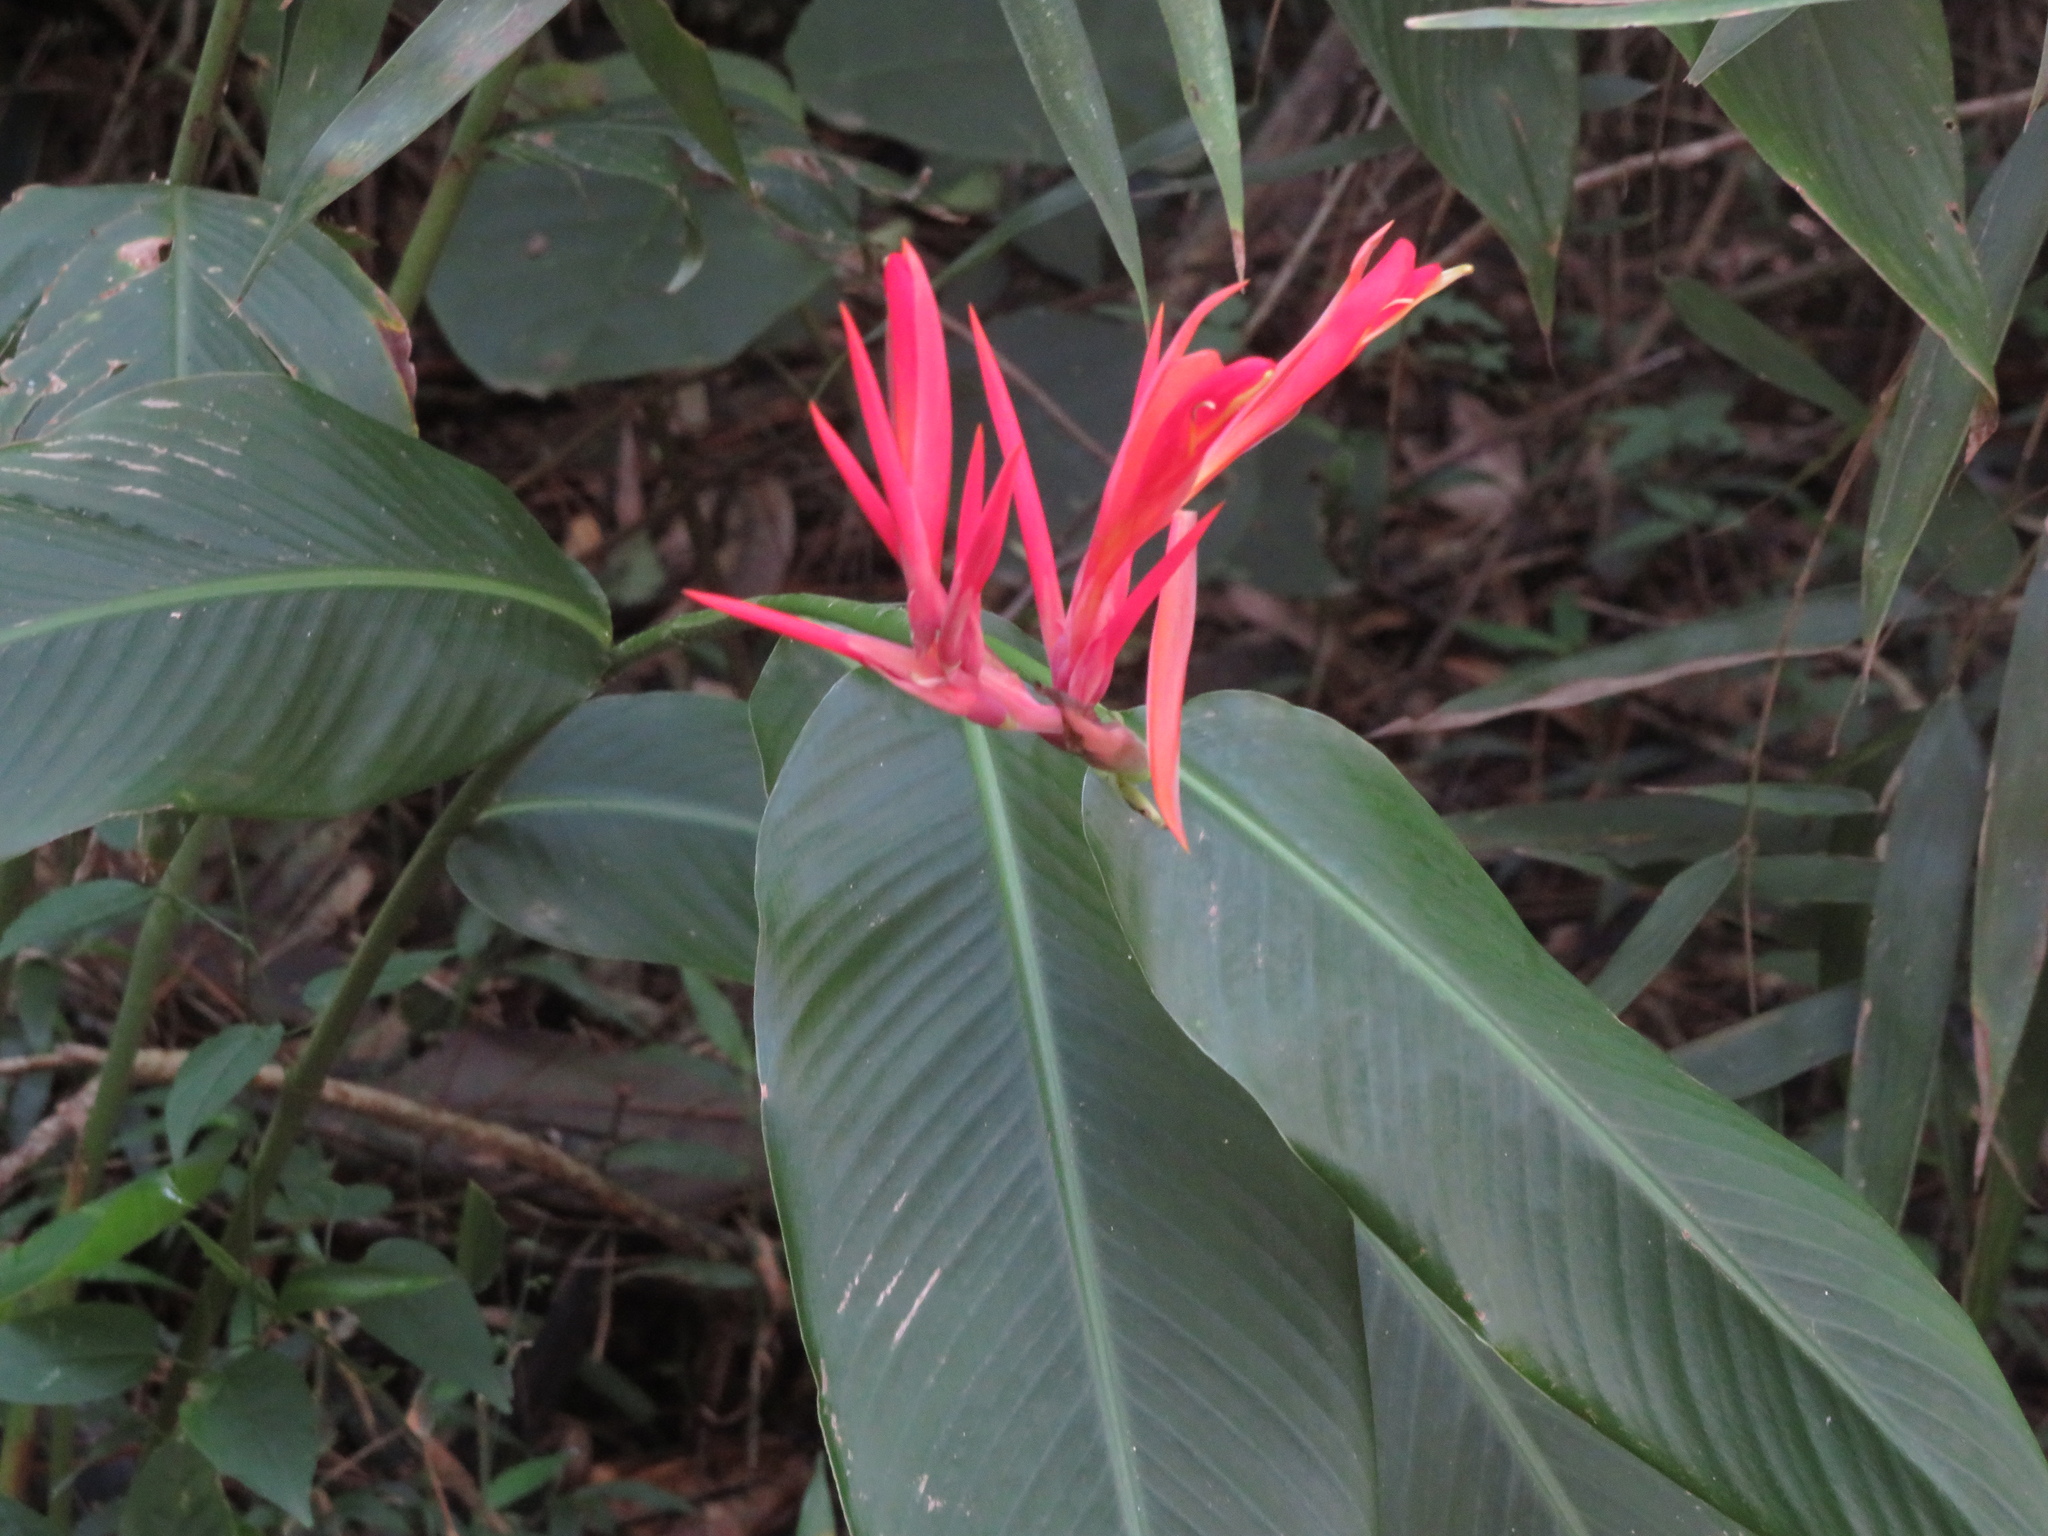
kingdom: Plantae
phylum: Tracheophyta
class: Liliopsida
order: Zingiberales
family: Cannaceae
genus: Canna
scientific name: Canna indica
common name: Indian shot
